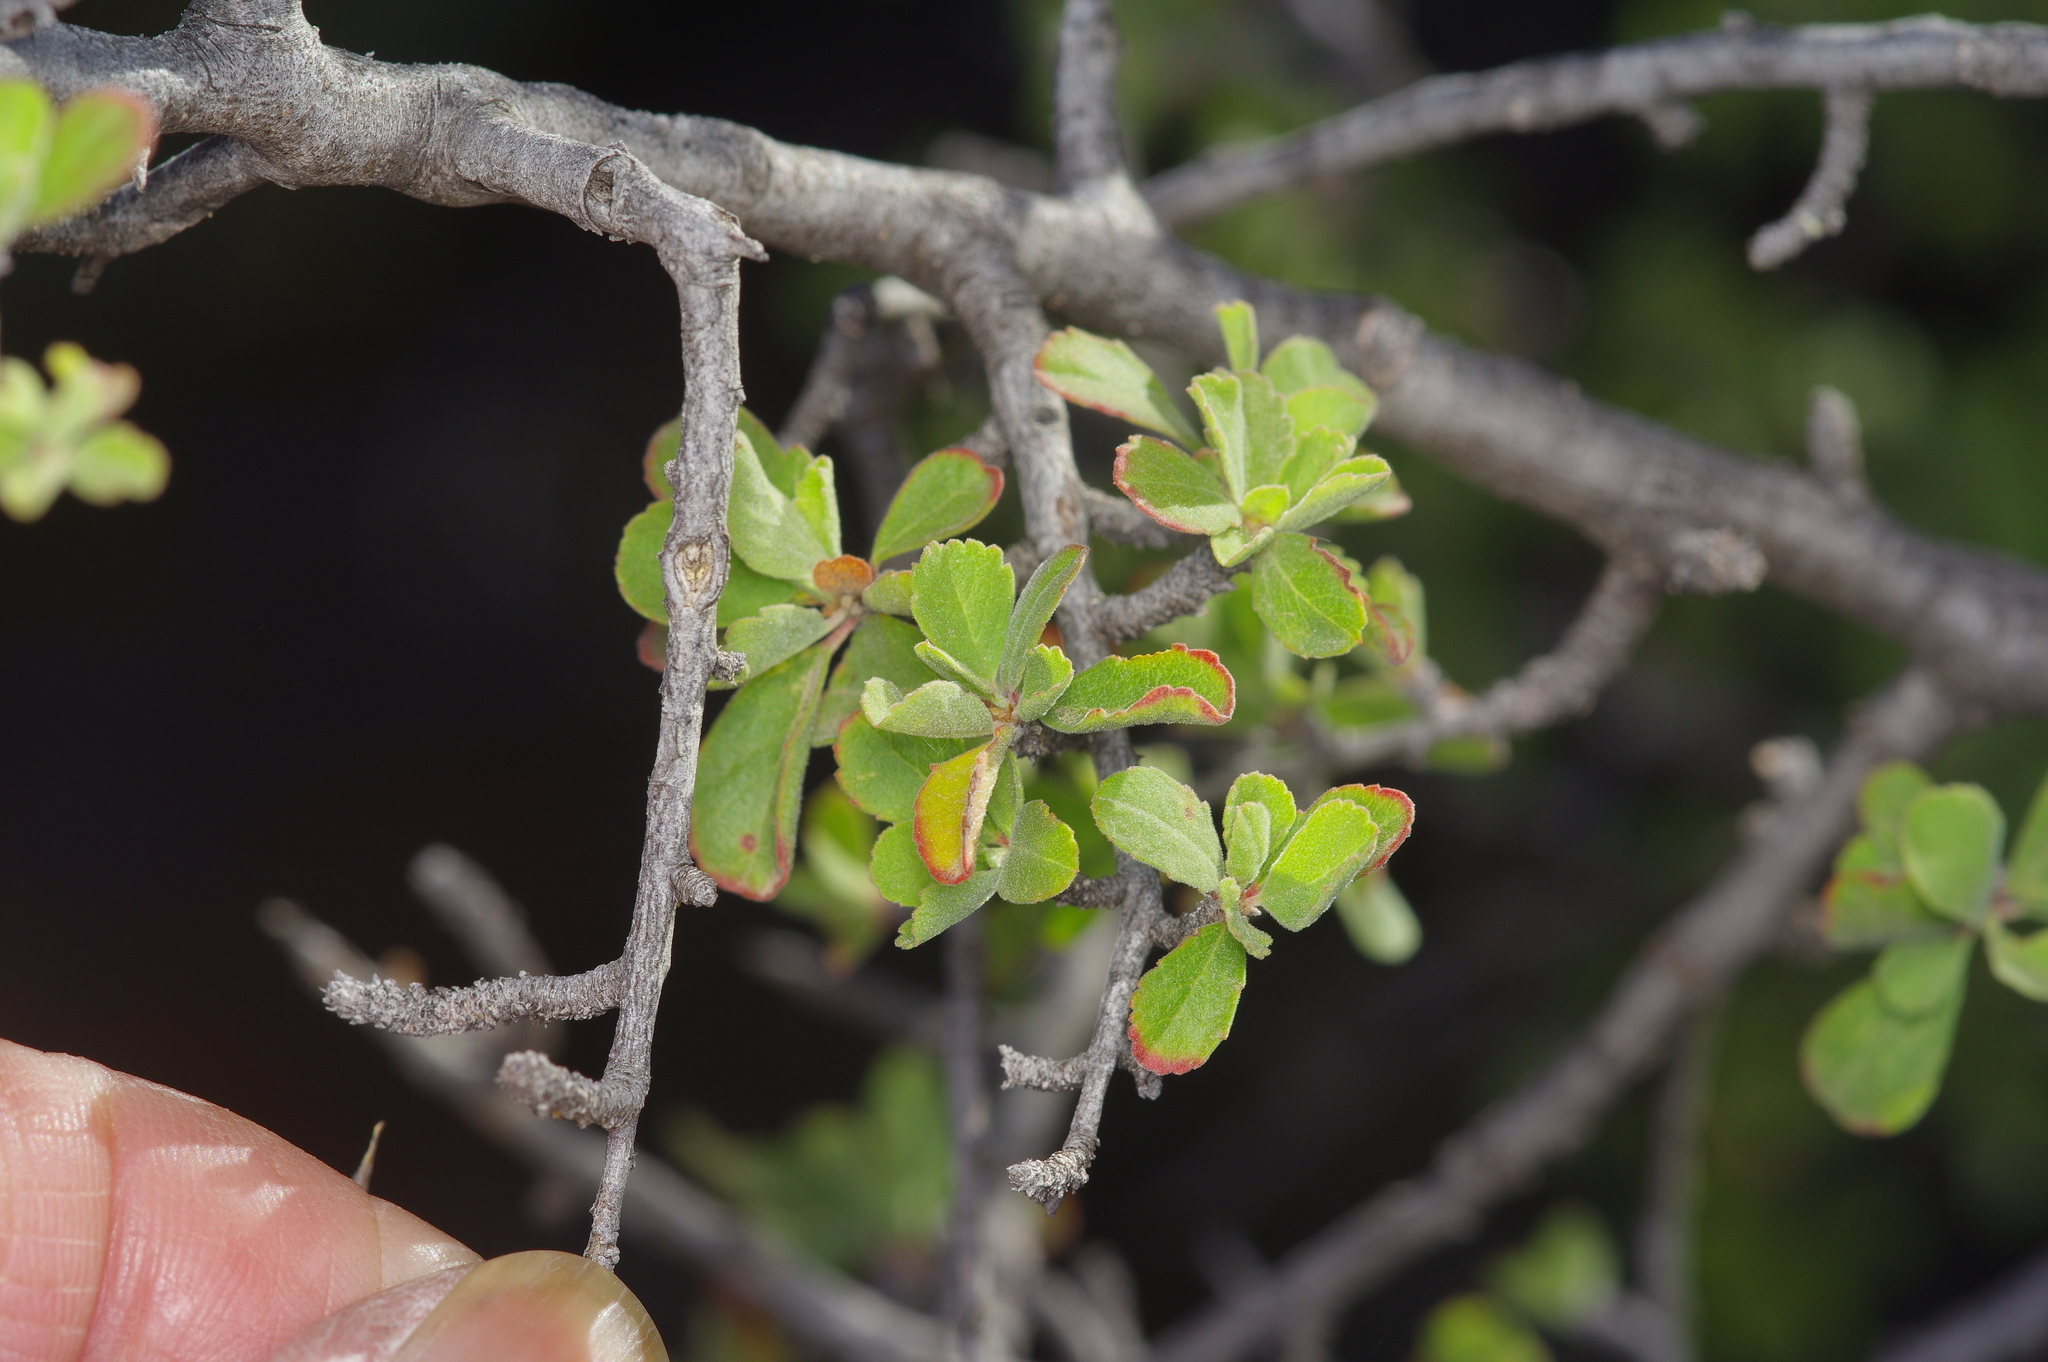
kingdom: Plantae
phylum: Tracheophyta
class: Magnoliopsida
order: Rosales
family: Rosaceae
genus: Prunus
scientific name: Prunus havardii
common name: Havard plum
